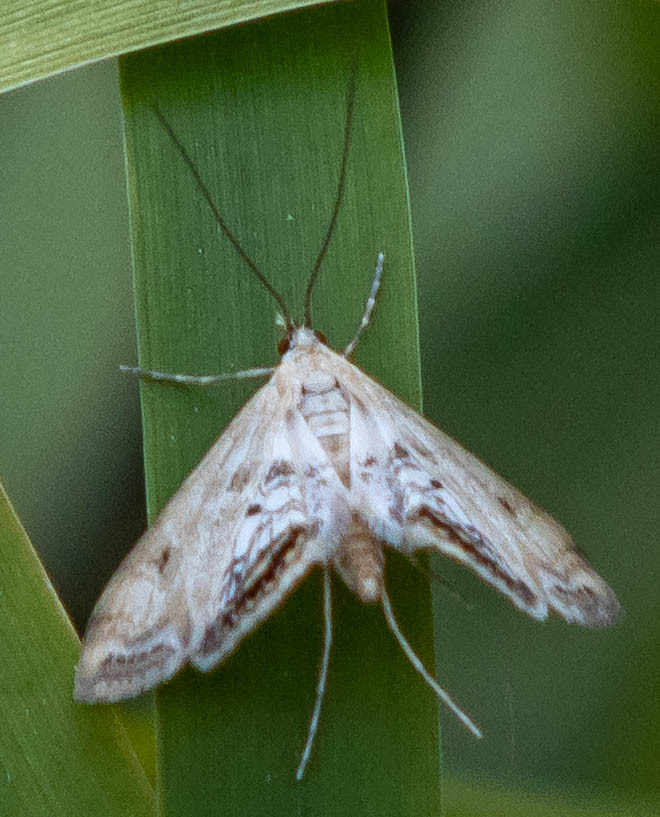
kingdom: Animalia
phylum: Arthropoda
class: Insecta
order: Lepidoptera
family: Crambidae
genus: Cataclysta
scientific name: Cataclysta lemnata
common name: Small china-mark
